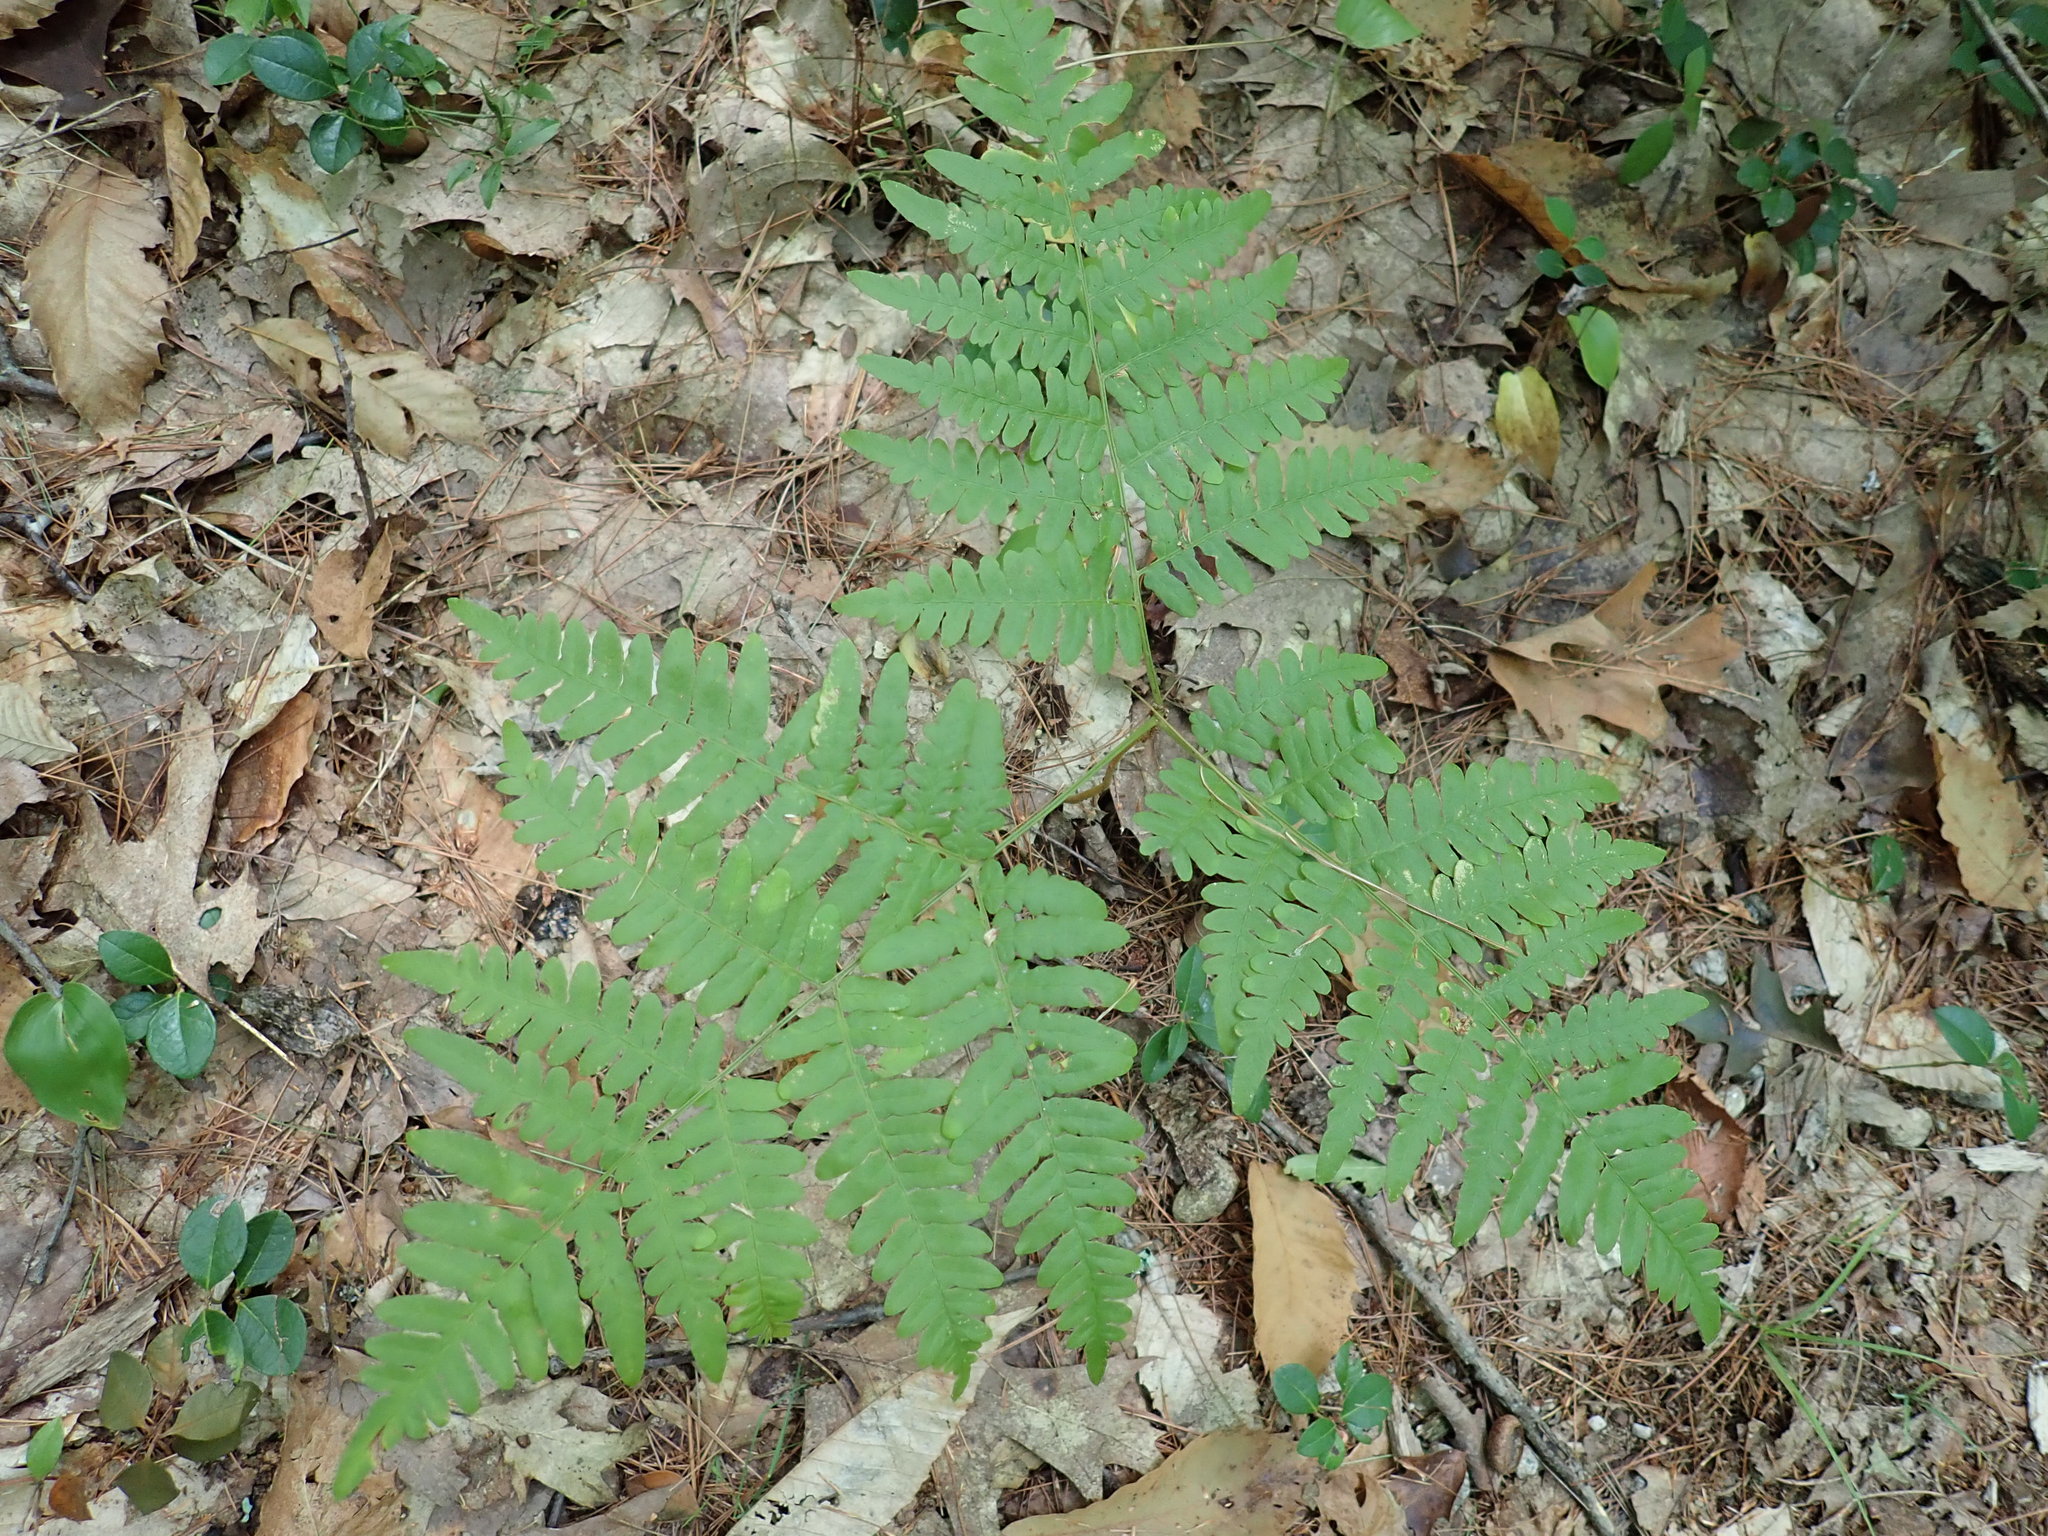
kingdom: Plantae
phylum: Tracheophyta
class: Polypodiopsida
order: Polypodiales
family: Dennstaedtiaceae
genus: Pteridium
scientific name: Pteridium aquilinum
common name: Bracken
